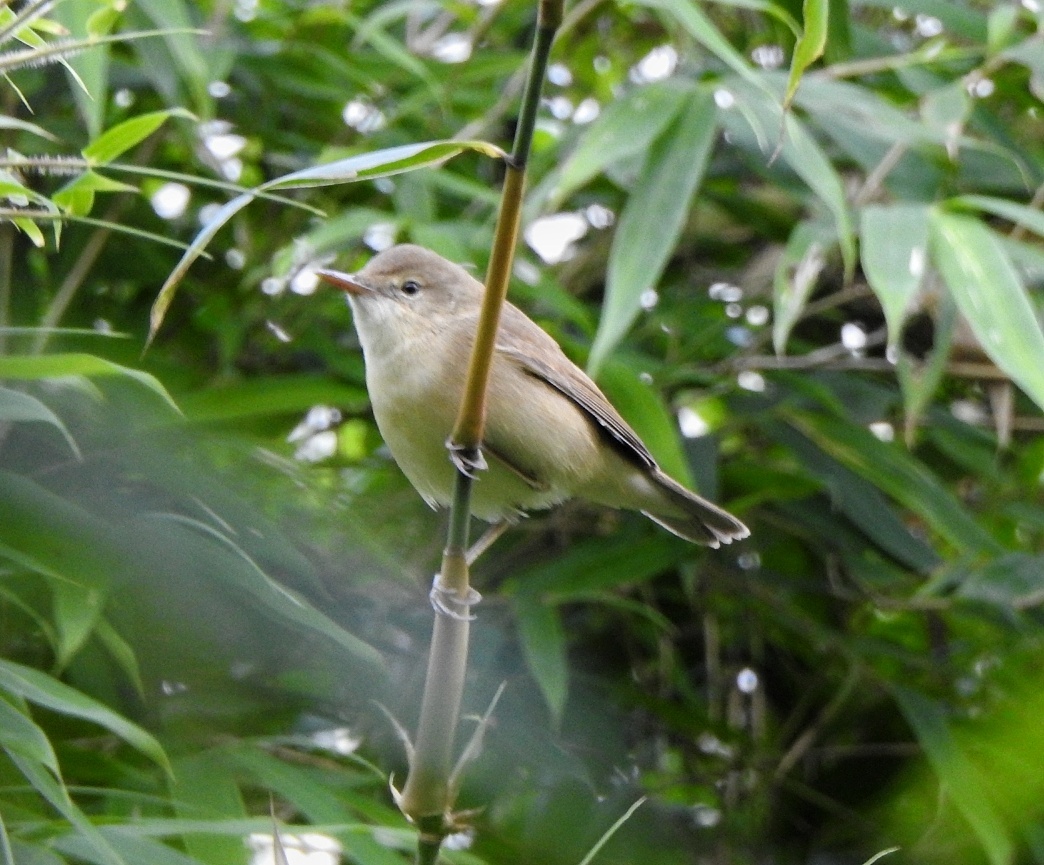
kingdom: Animalia
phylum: Chordata
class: Aves
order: Passeriformes
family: Acrocephalidae
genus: Acrocephalus
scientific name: Acrocephalus dumetorum
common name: Blyth's reed warbler
